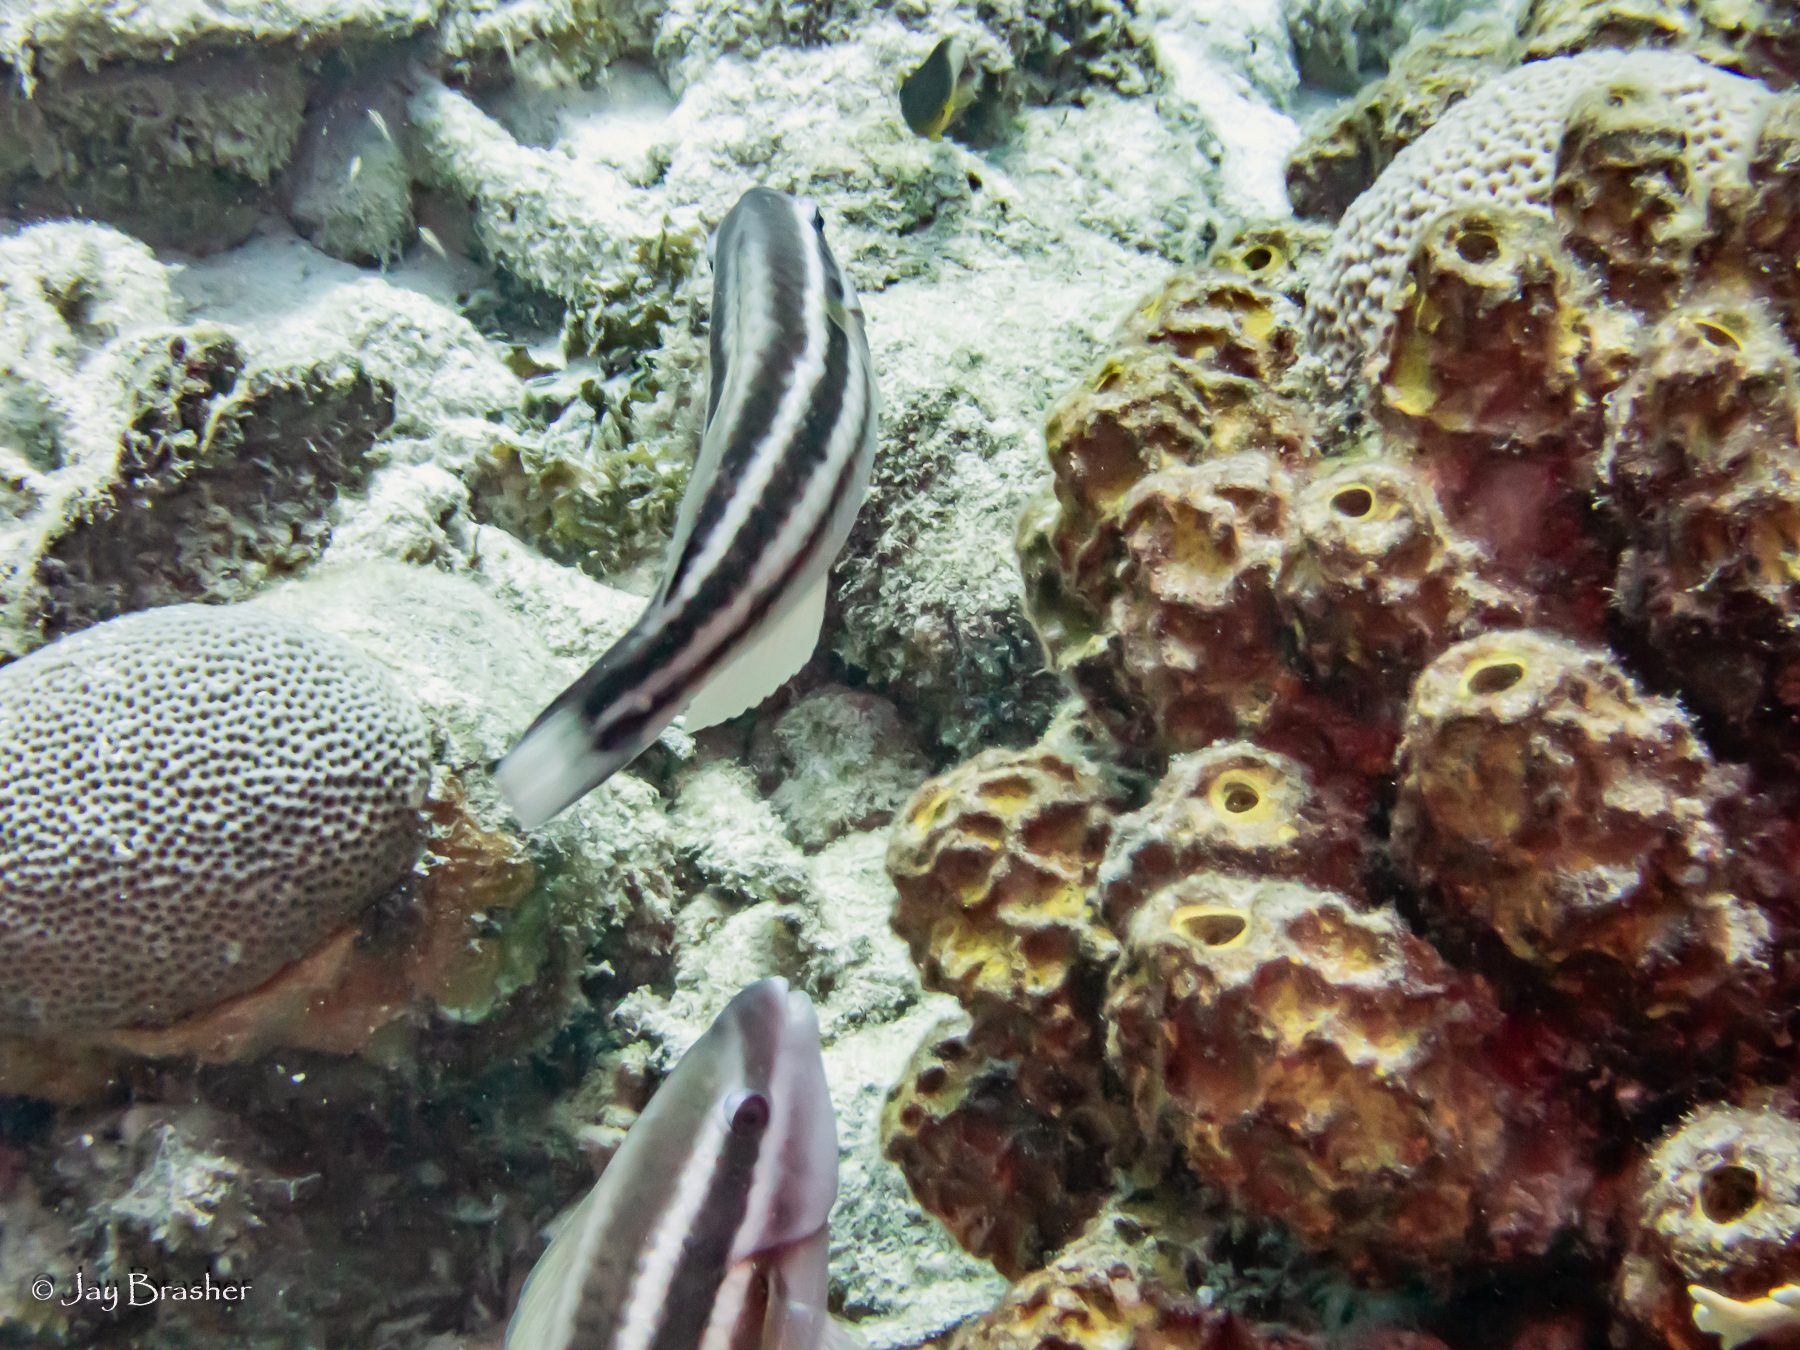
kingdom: Animalia
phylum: Chordata
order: Perciformes
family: Scaridae
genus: Scarus
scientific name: Scarus taeniopterus
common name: Princess parrotfish
